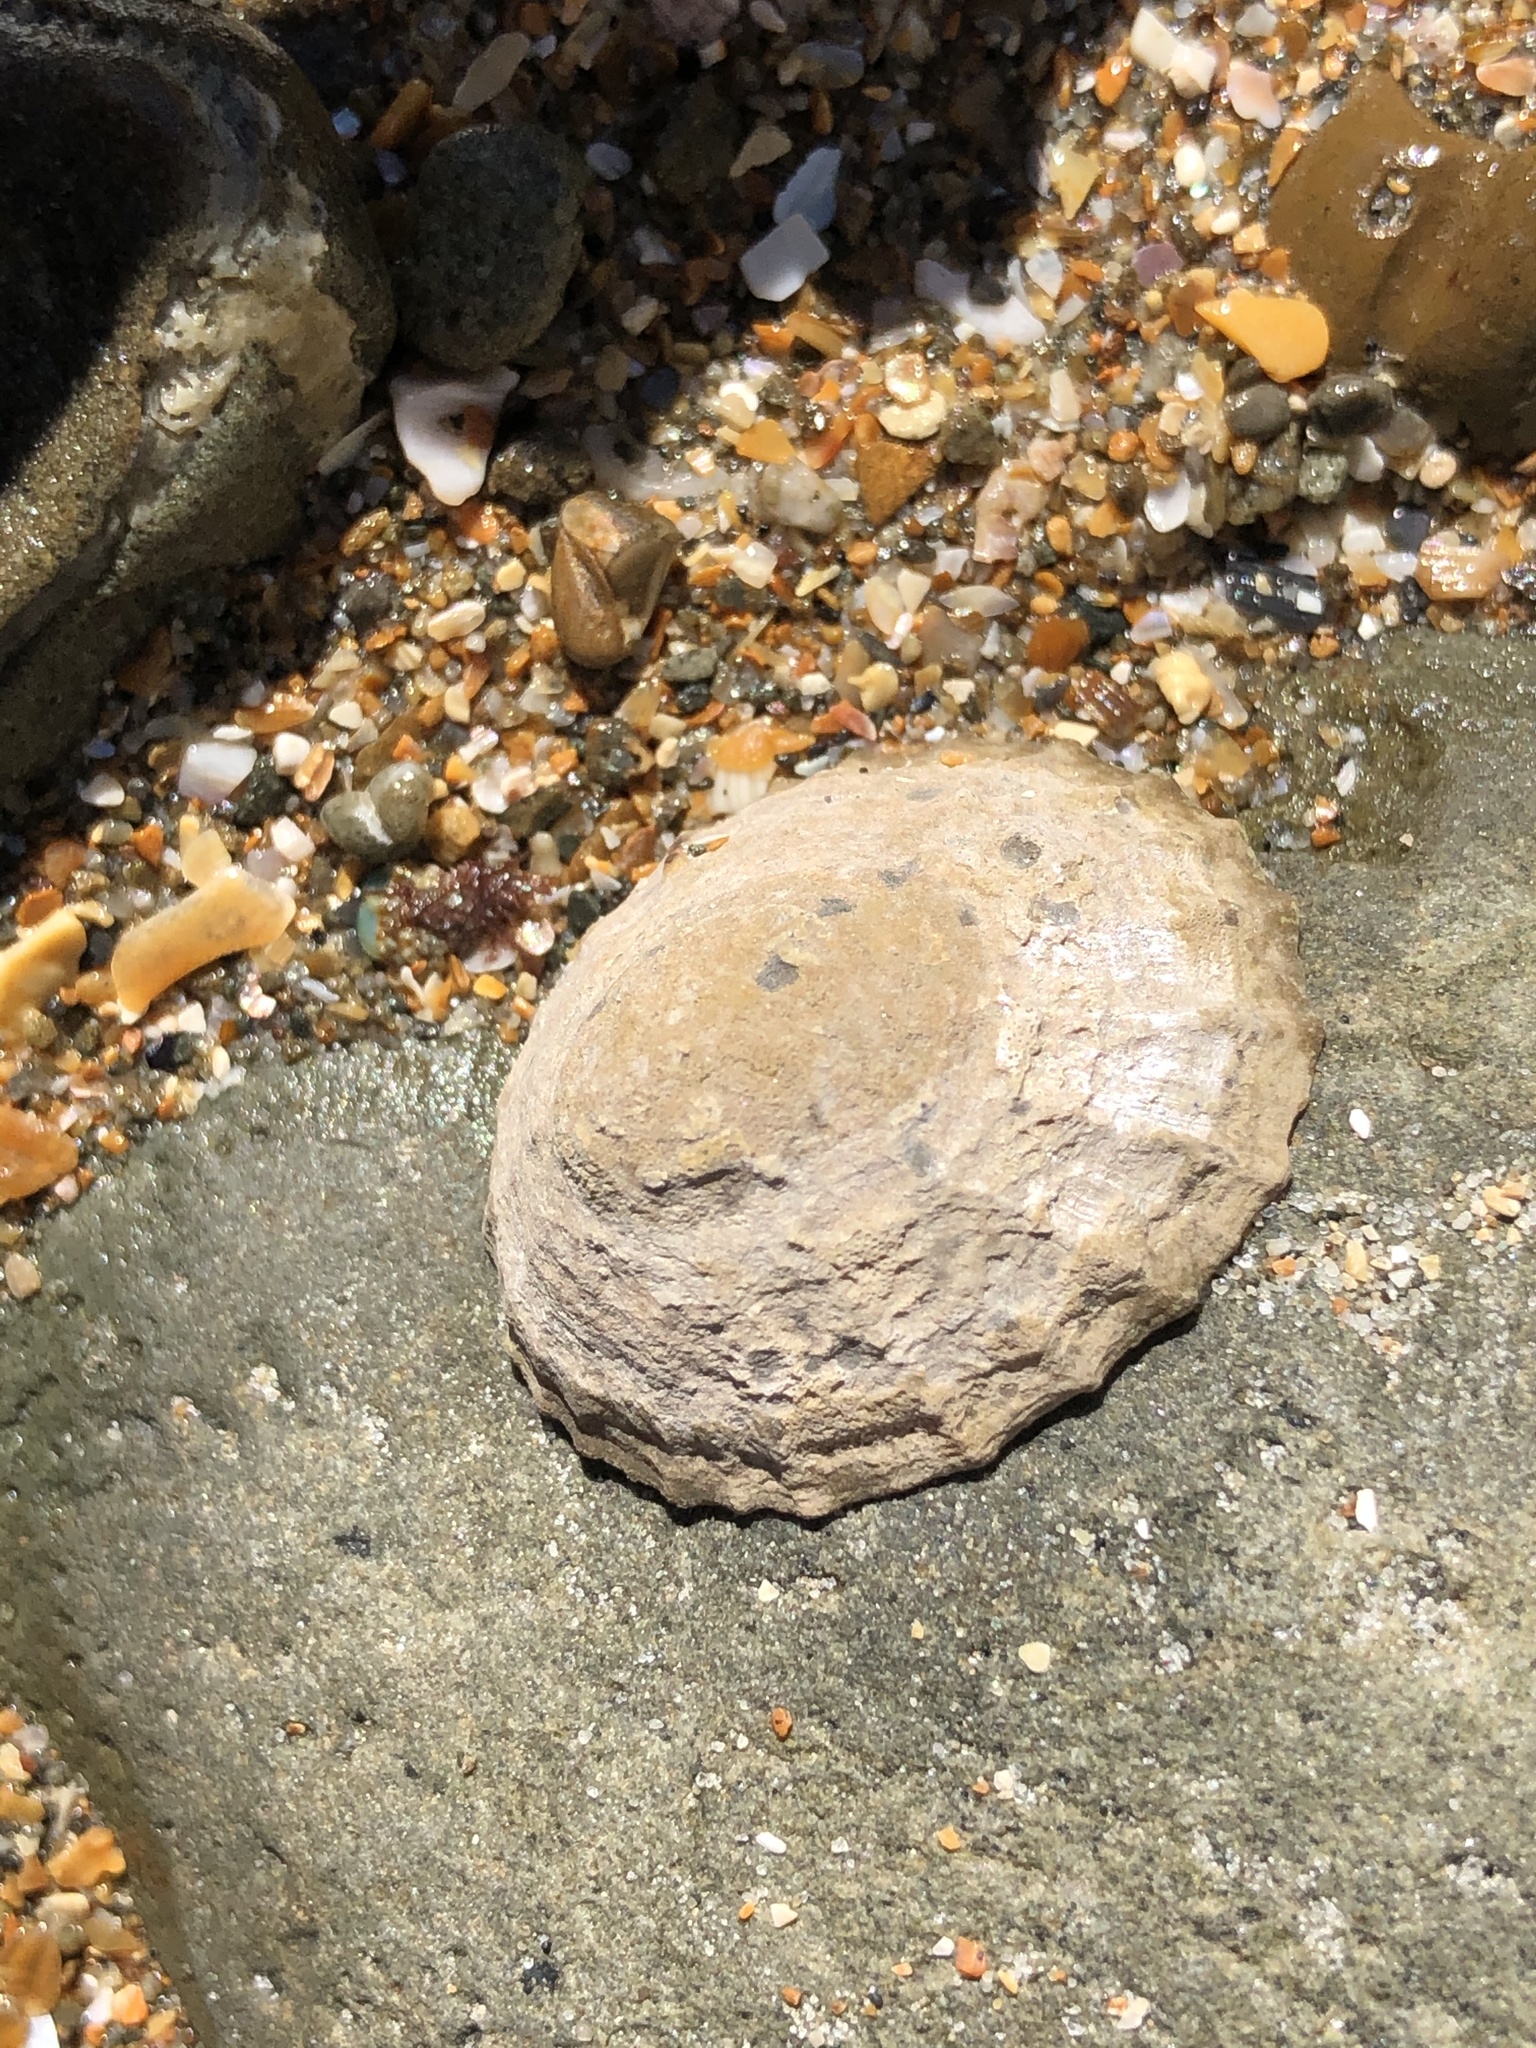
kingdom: Animalia
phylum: Mollusca
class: Gastropoda
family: Nacellidae
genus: Cellana
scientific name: Cellana radians
